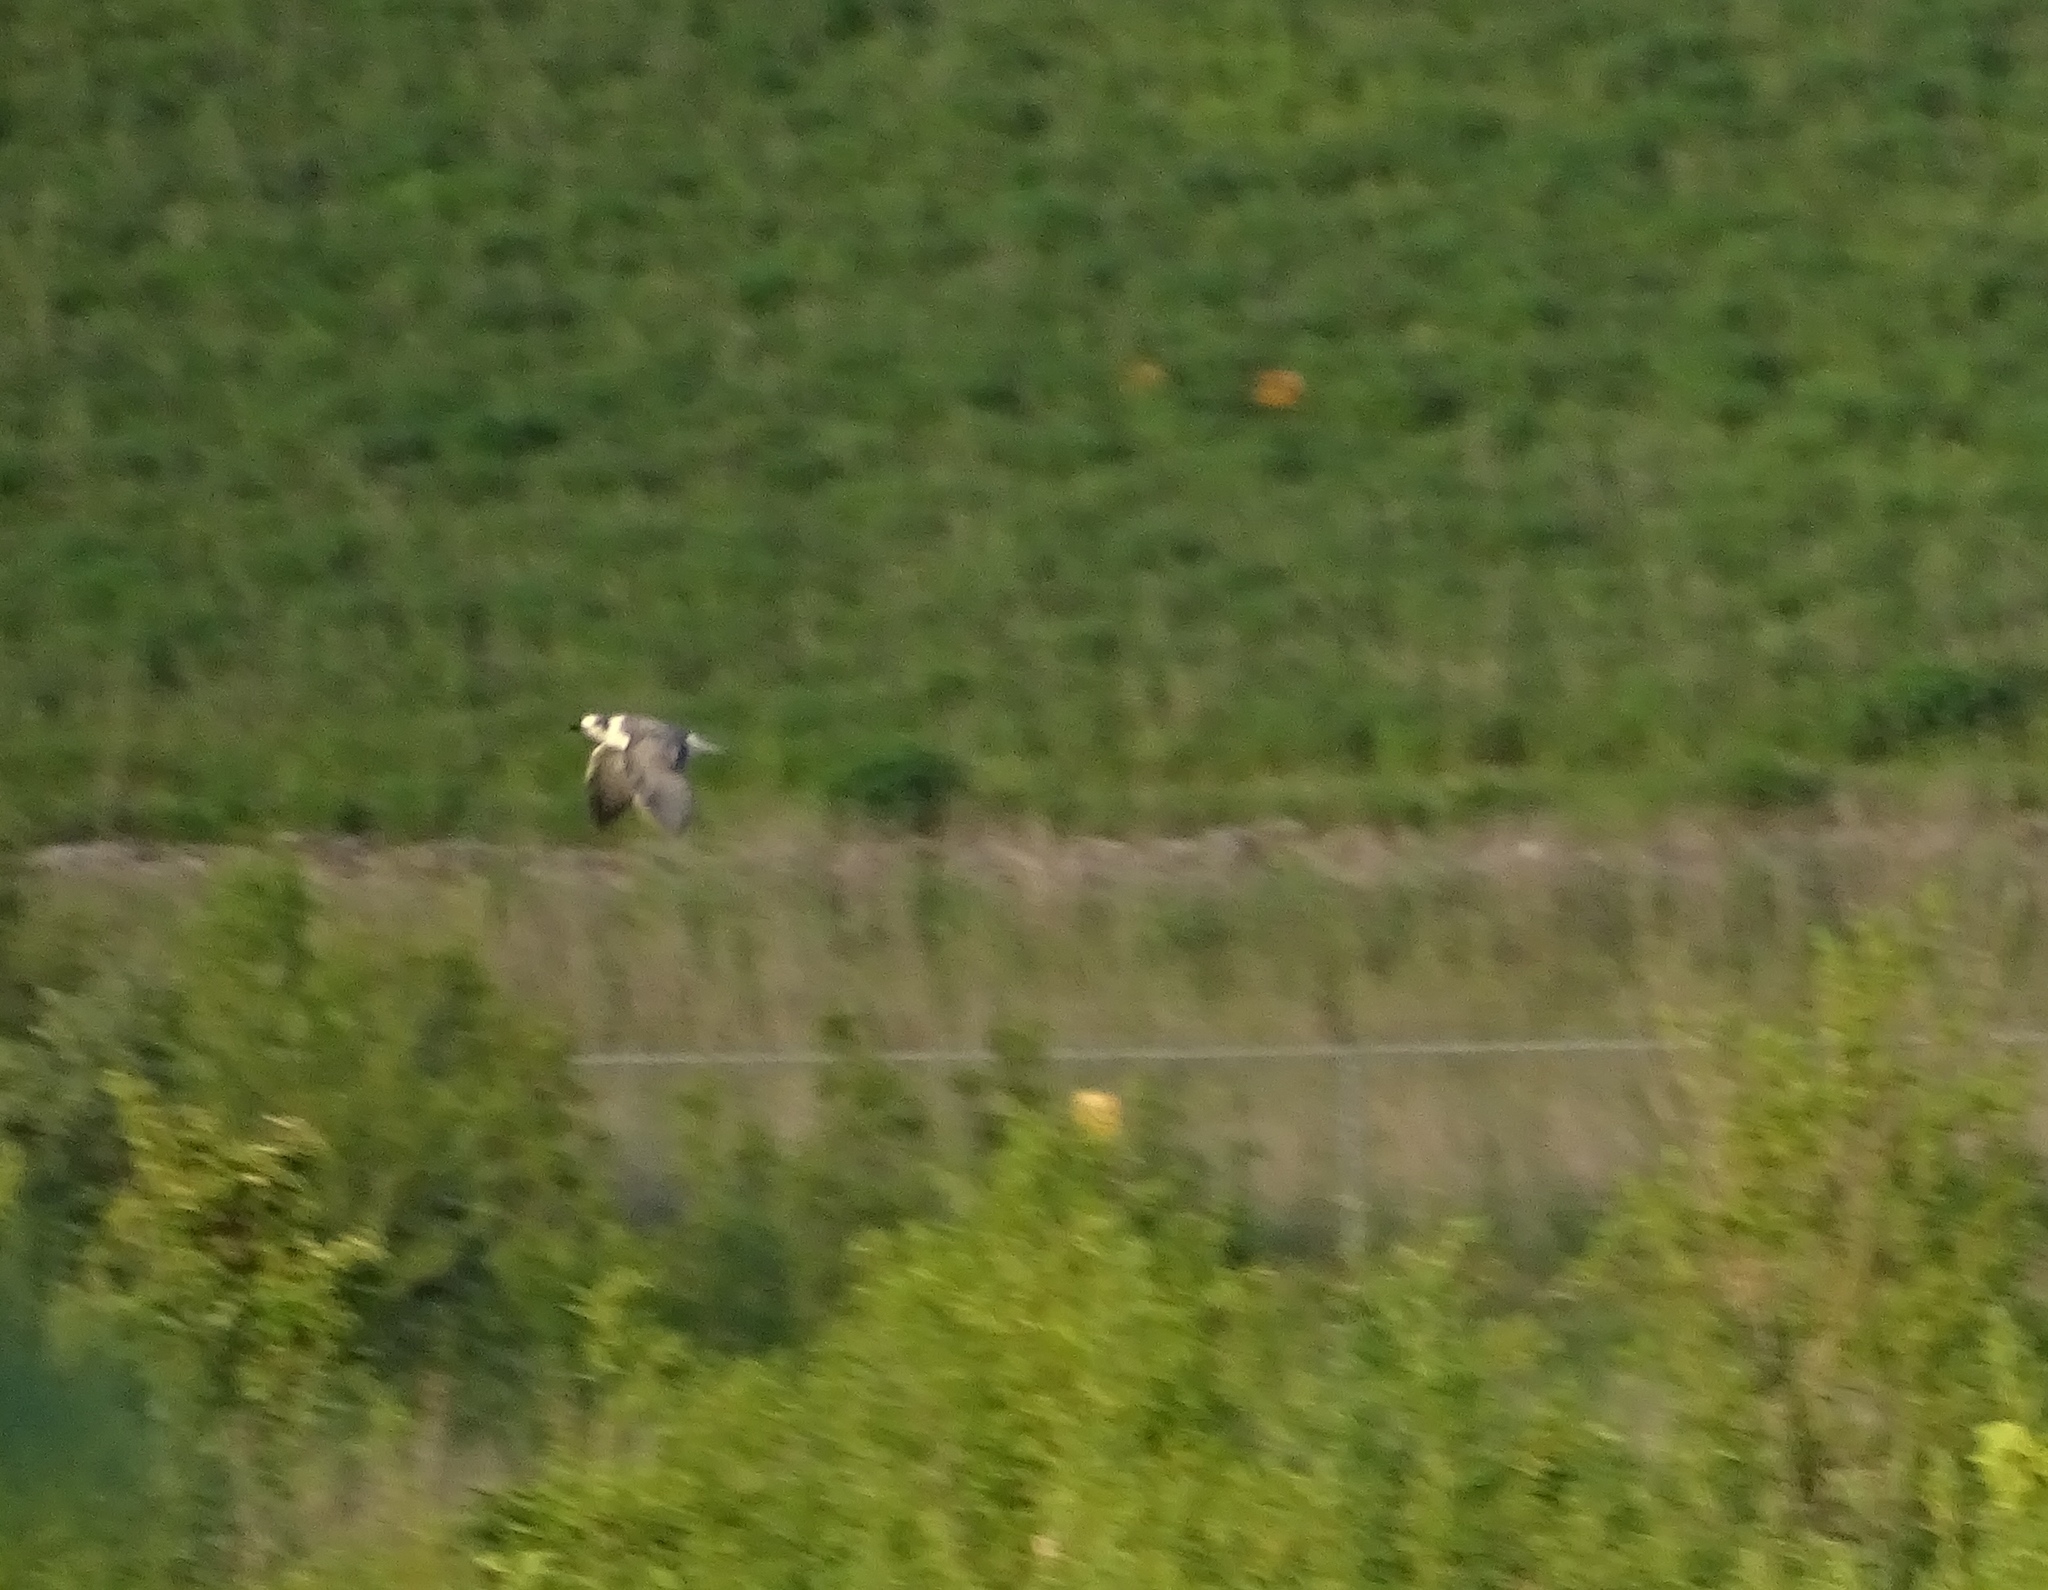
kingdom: Animalia
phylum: Chordata
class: Aves
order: Charadriiformes
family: Laridae
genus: Chlidonias
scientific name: Chlidonias niger
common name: Black tern
